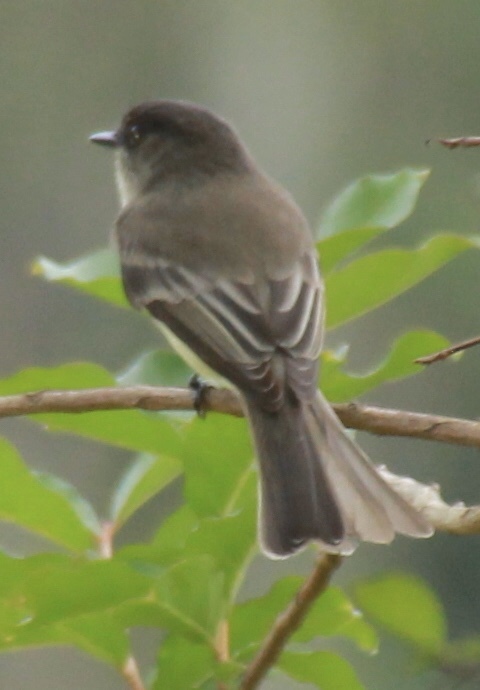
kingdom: Animalia
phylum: Chordata
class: Aves
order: Passeriformes
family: Tyrannidae
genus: Sayornis
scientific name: Sayornis phoebe
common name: Eastern phoebe
